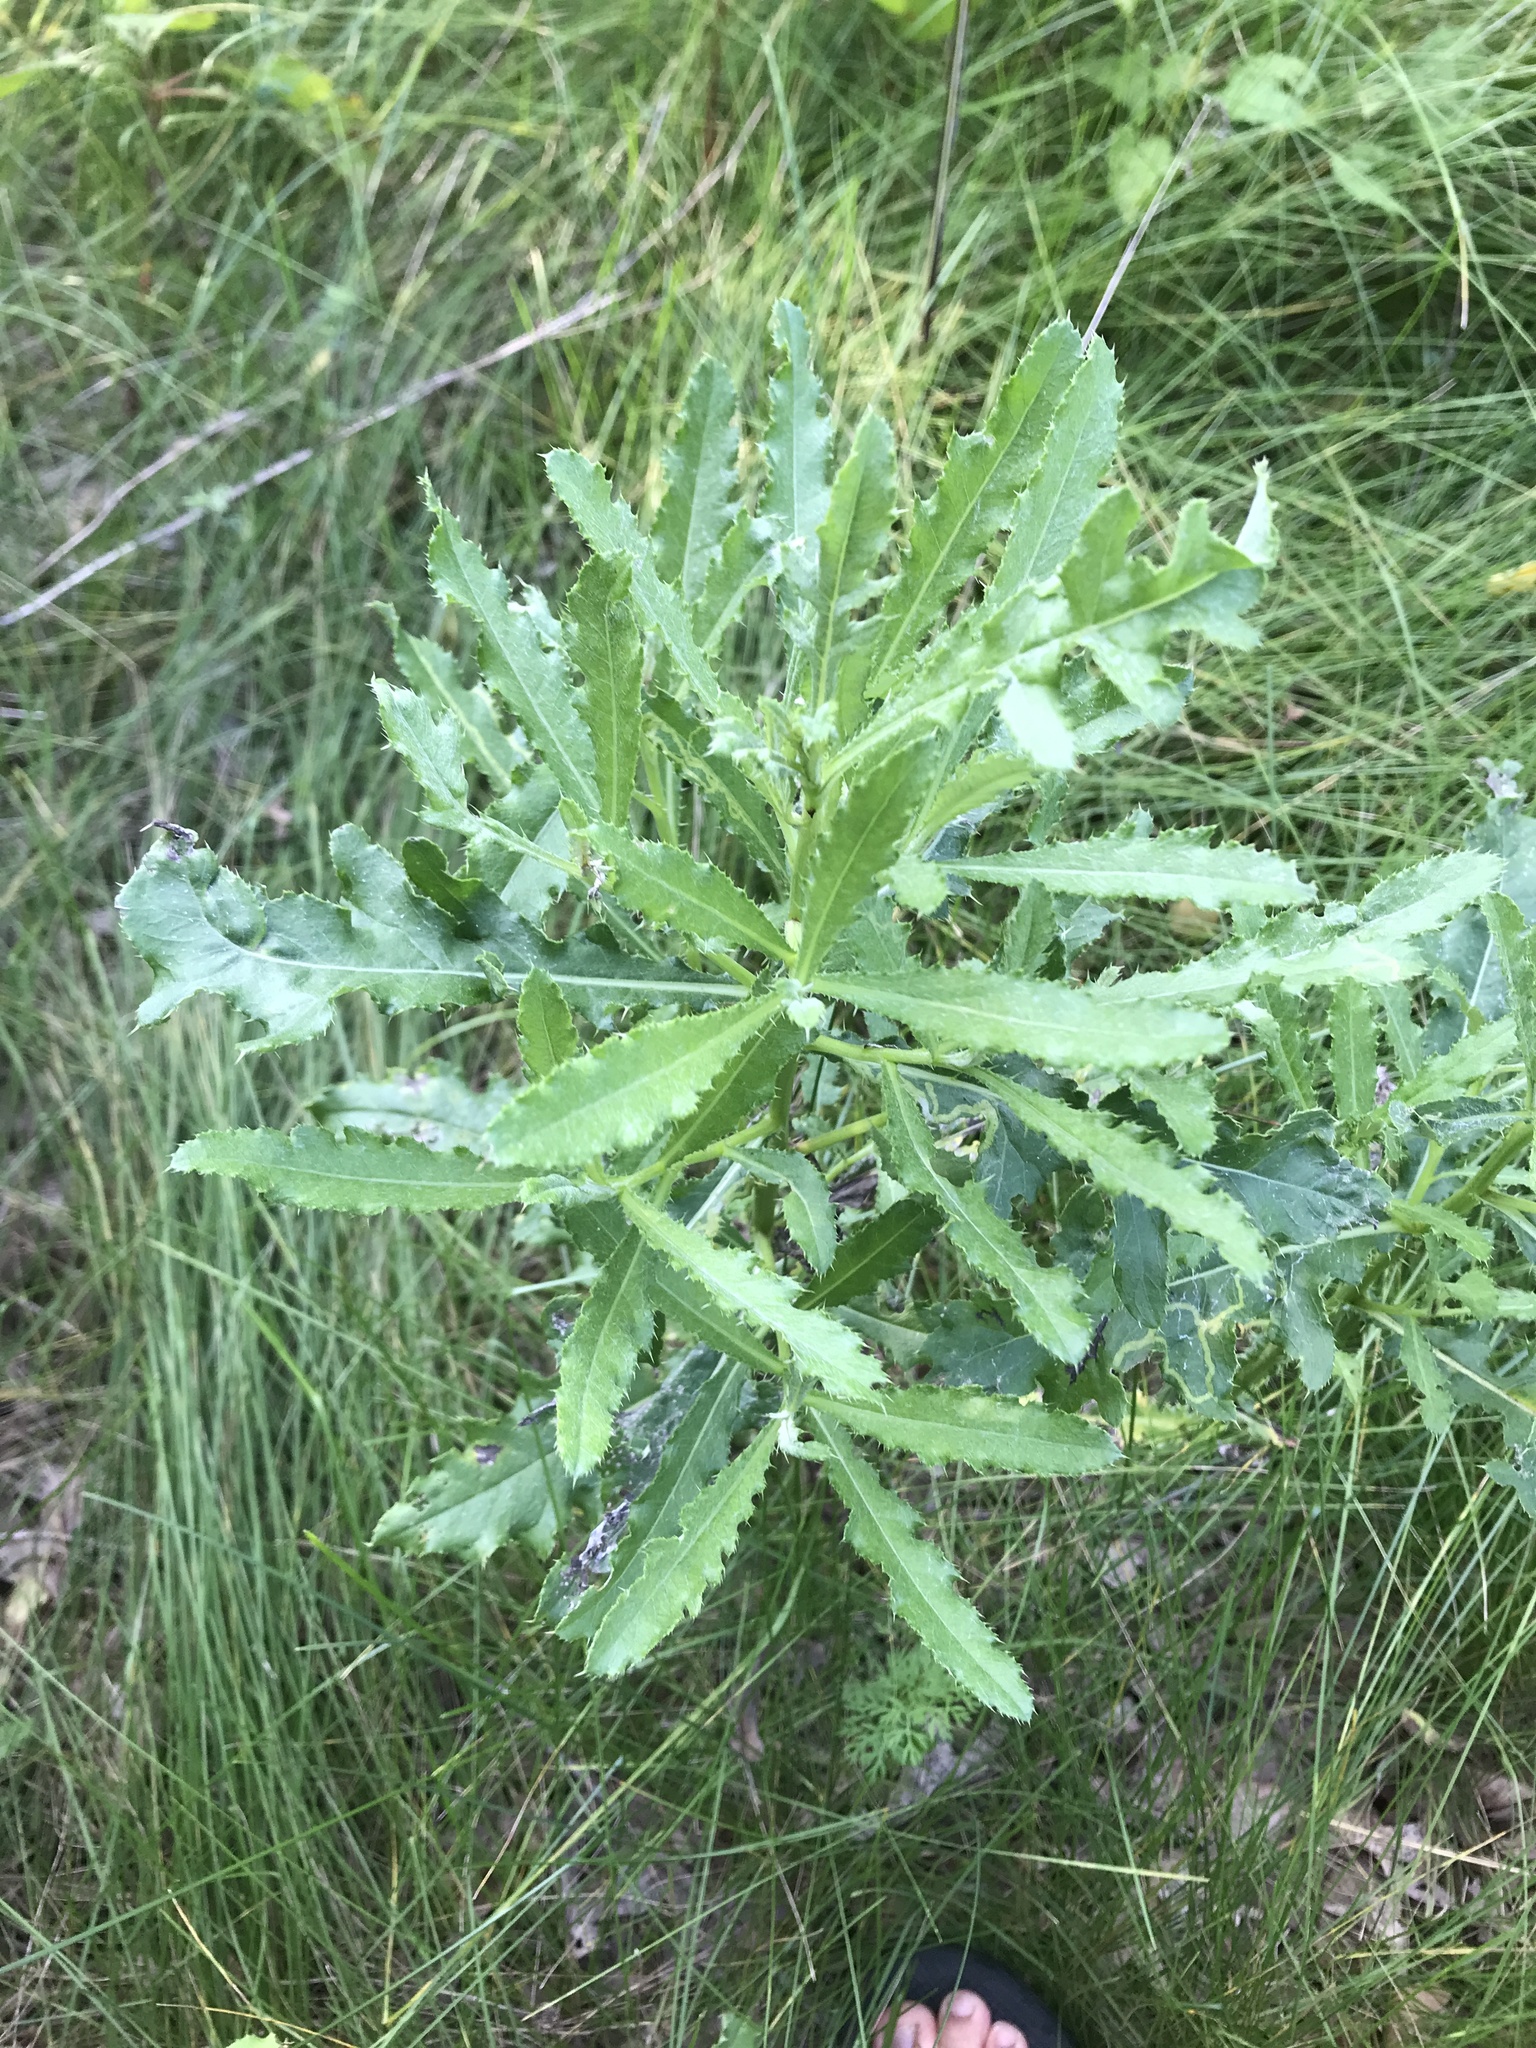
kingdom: Plantae
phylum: Tracheophyta
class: Magnoliopsida
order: Asterales
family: Asteraceae
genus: Cirsium
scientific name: Cirsium arvense
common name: Creeping thistle
